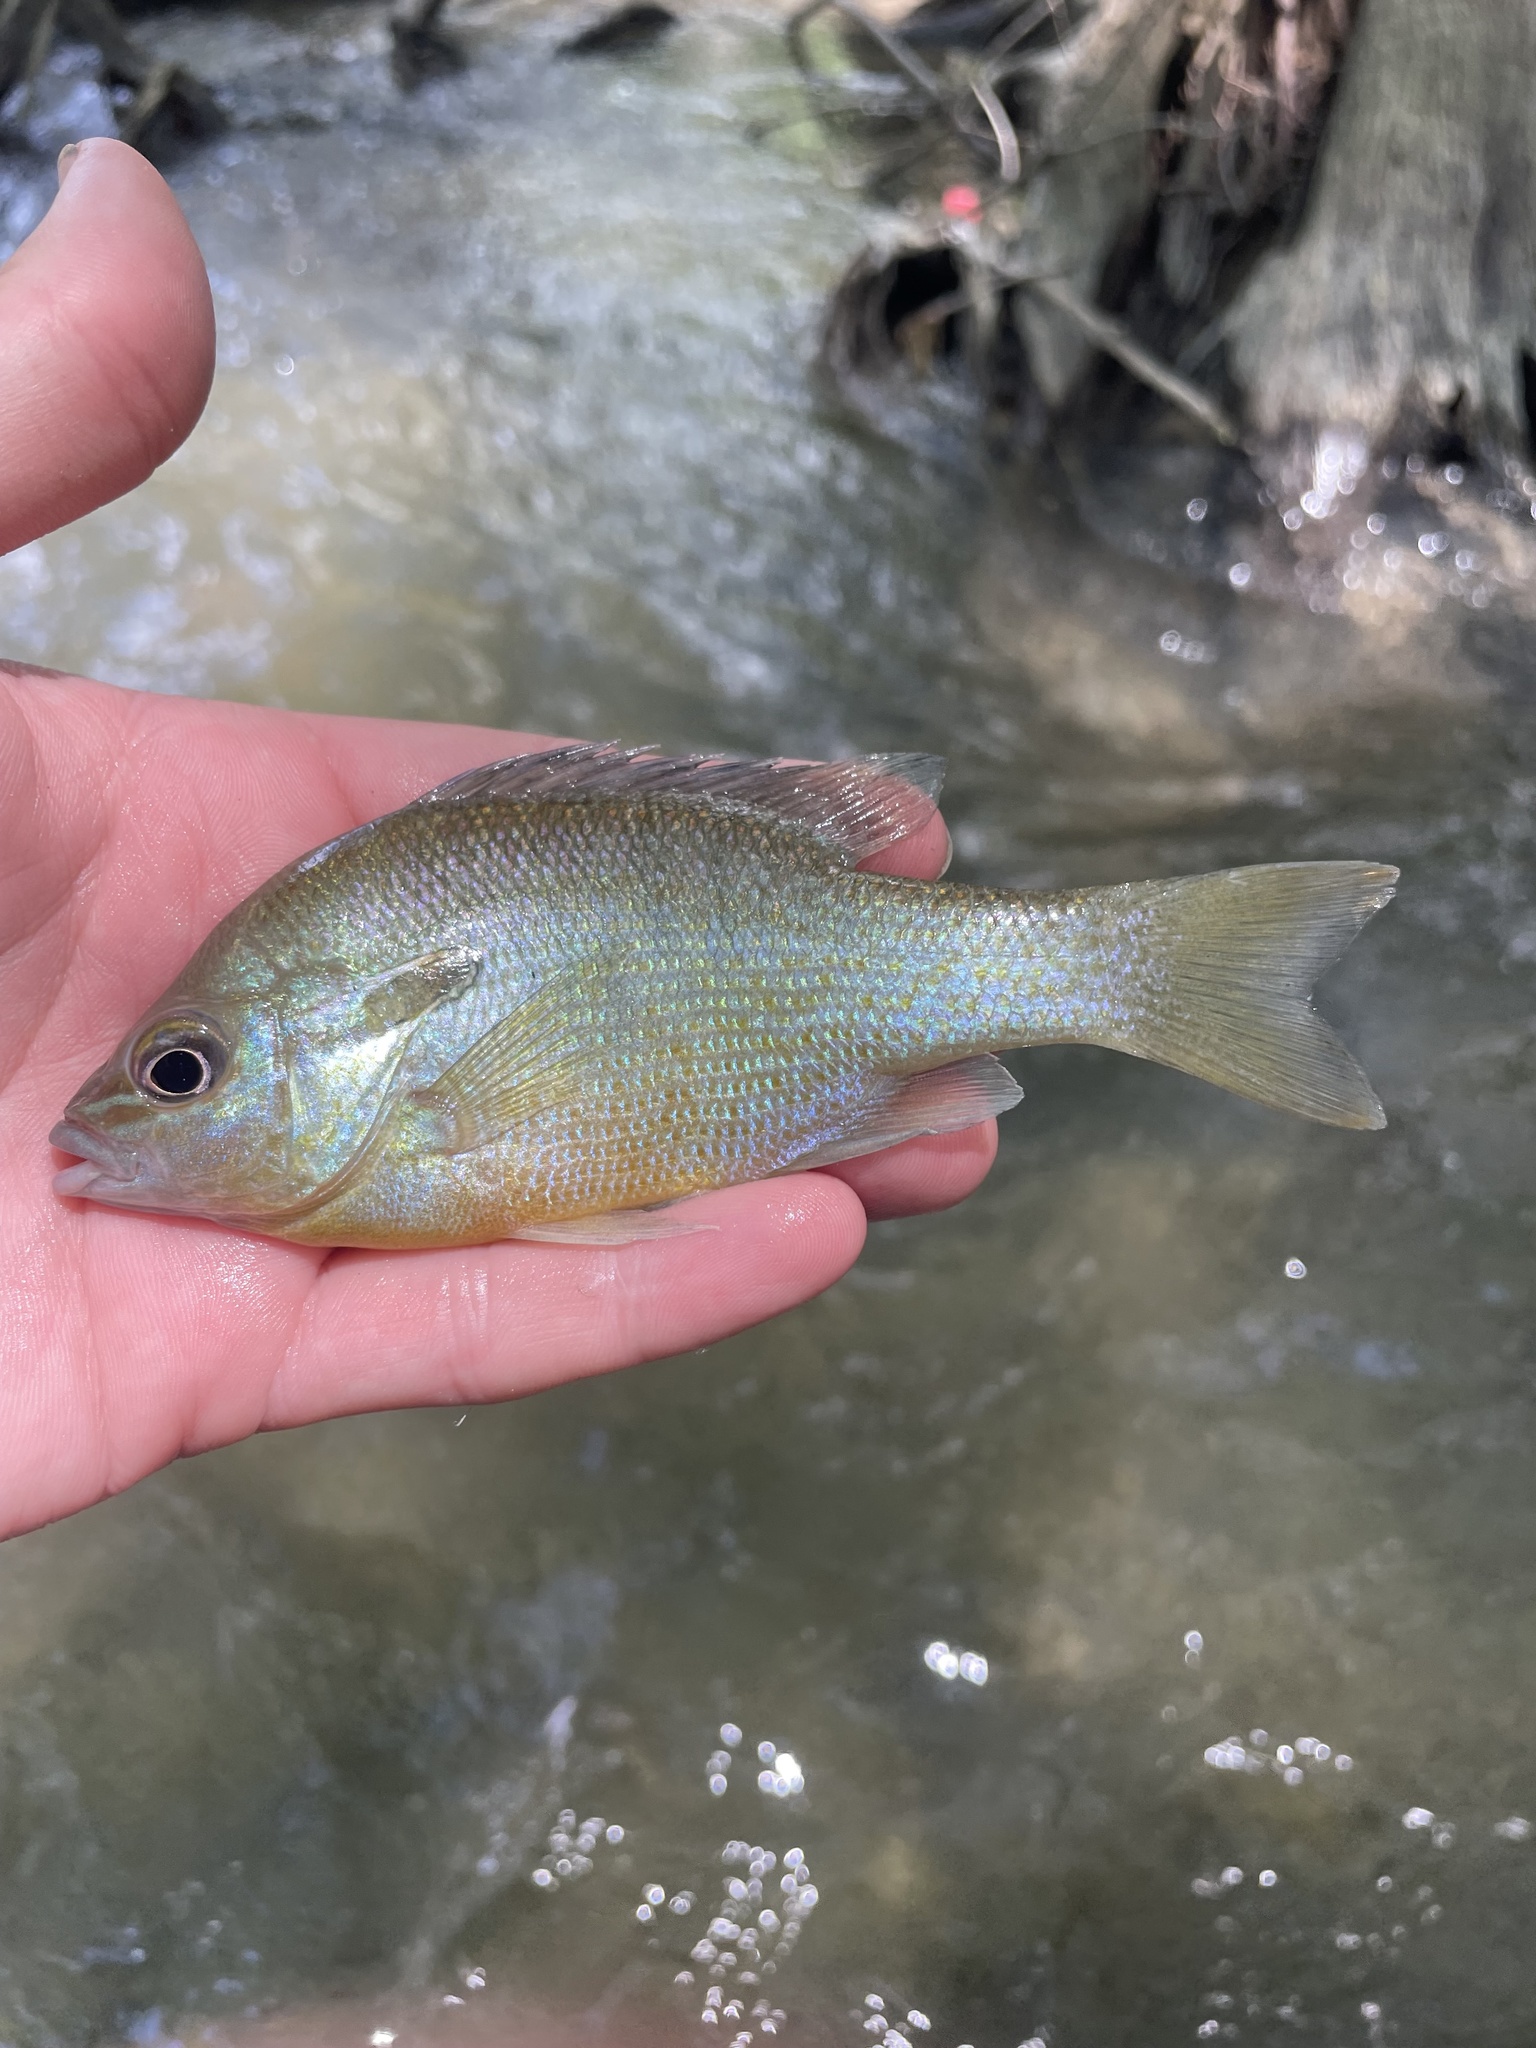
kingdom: Animalia
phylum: Chordata
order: Perciformes
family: Centrarchidae
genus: Lepomis
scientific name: Lepomis auritus
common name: Redbreast sunfish
